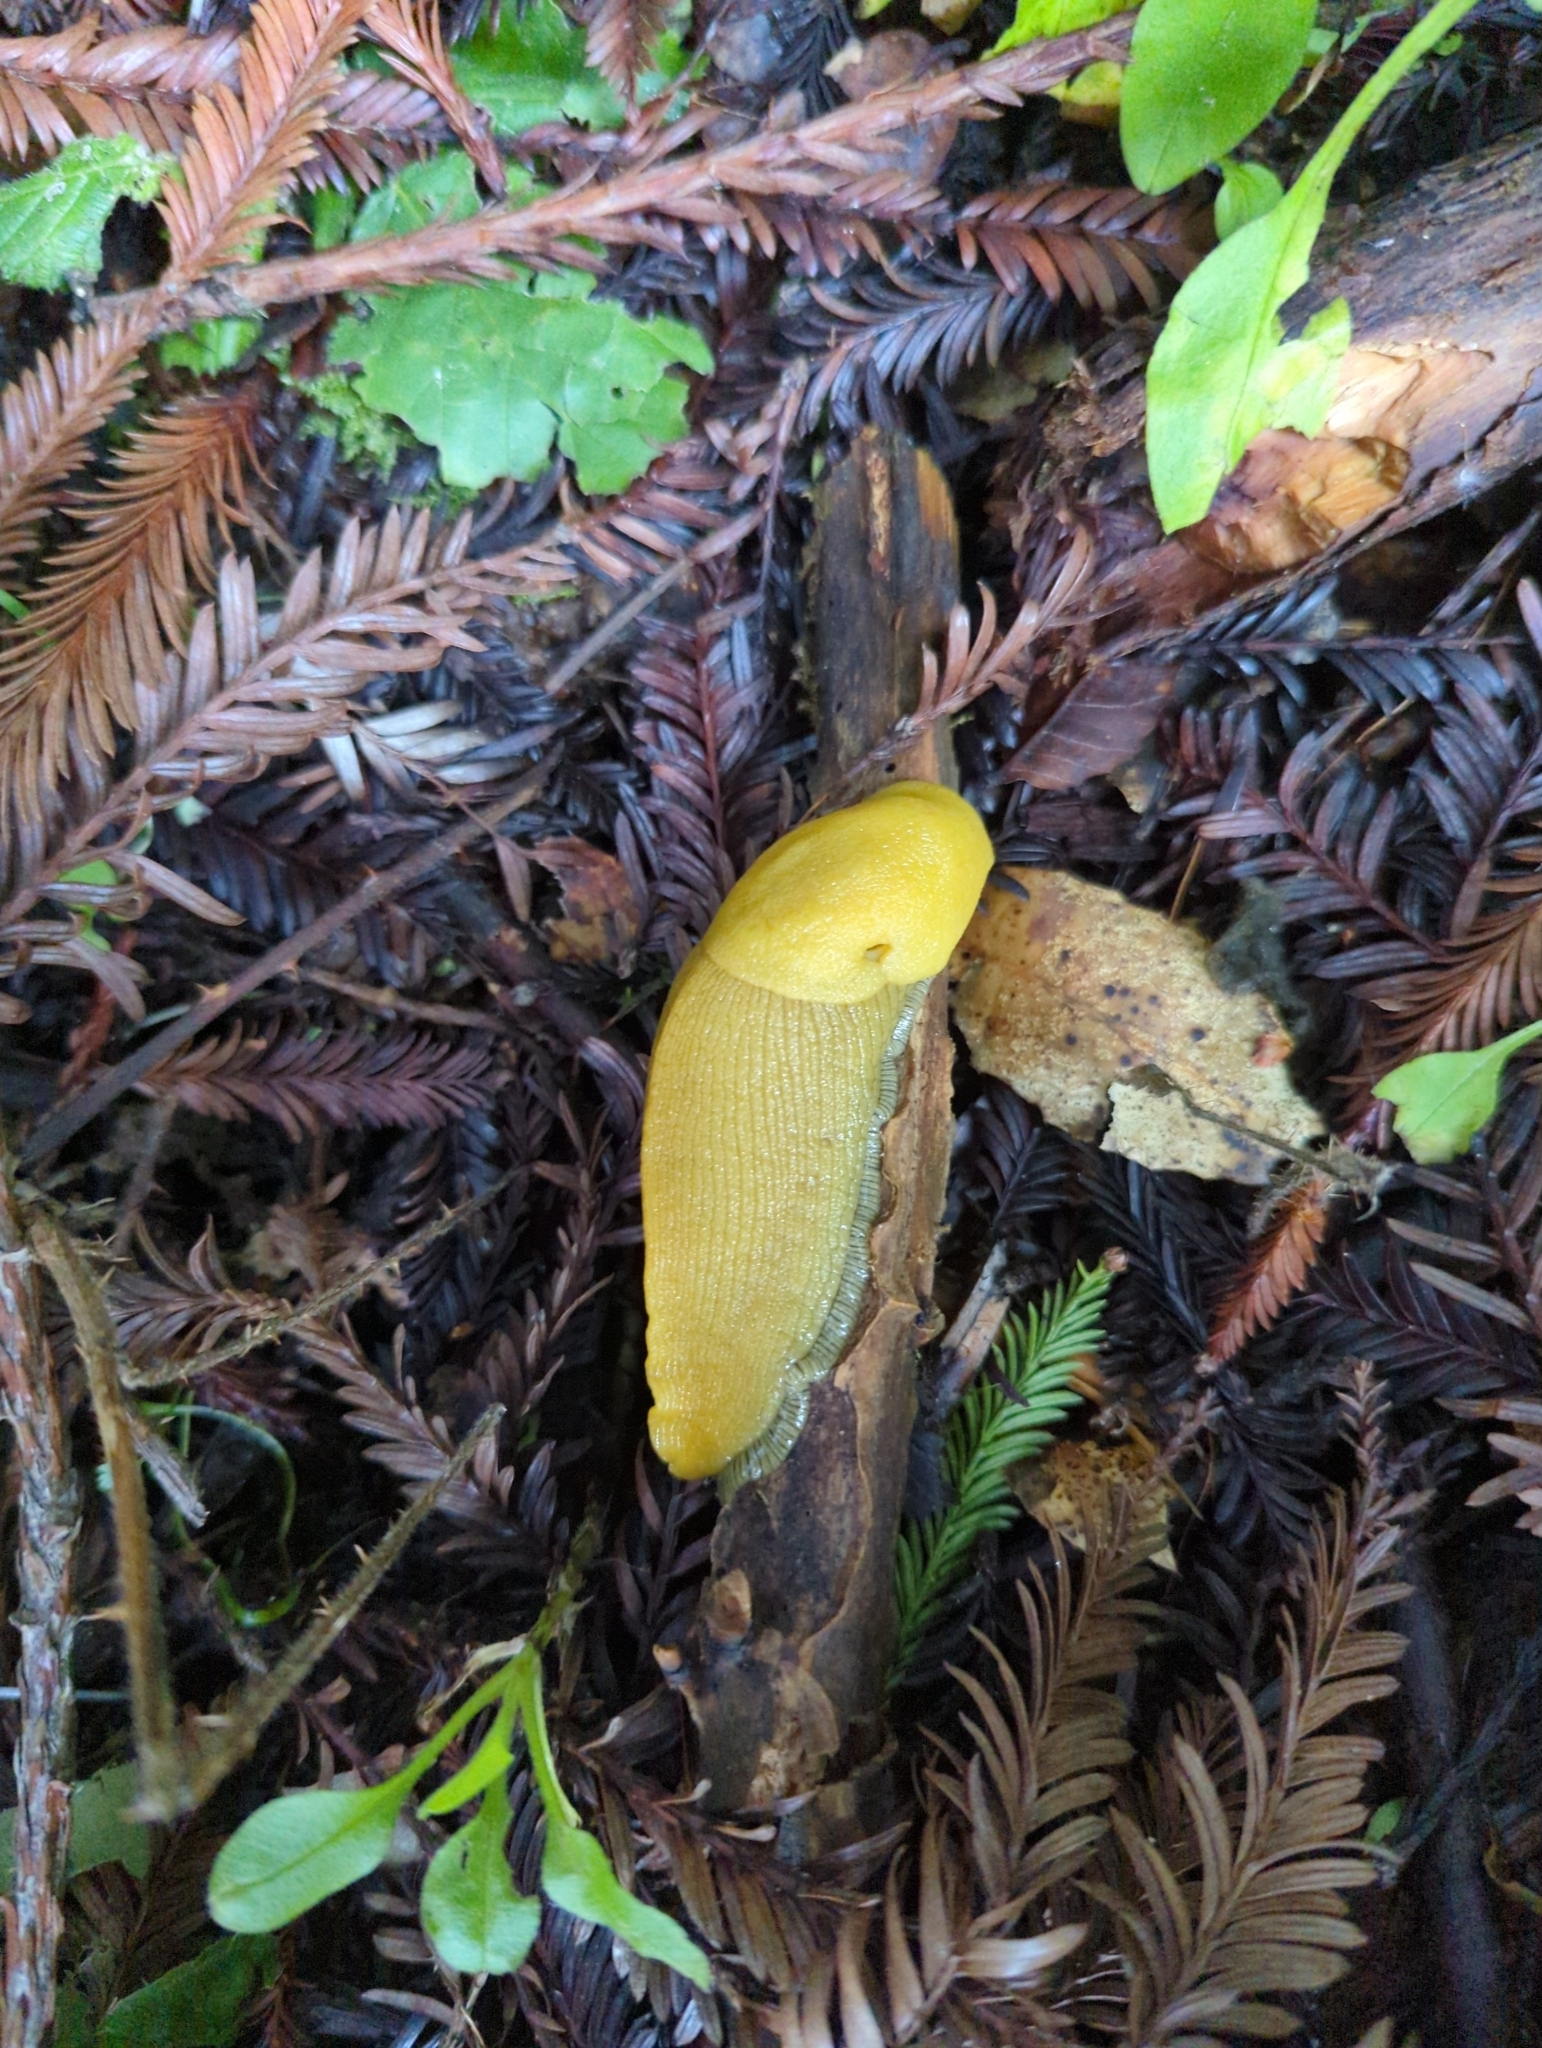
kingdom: Animalia
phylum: Mollusca
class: Gastropoda
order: Stylommatophora
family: Ariolimacidae
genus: Ariolimax
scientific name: Ariolimax dolichophallus
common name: Slender banana slug
